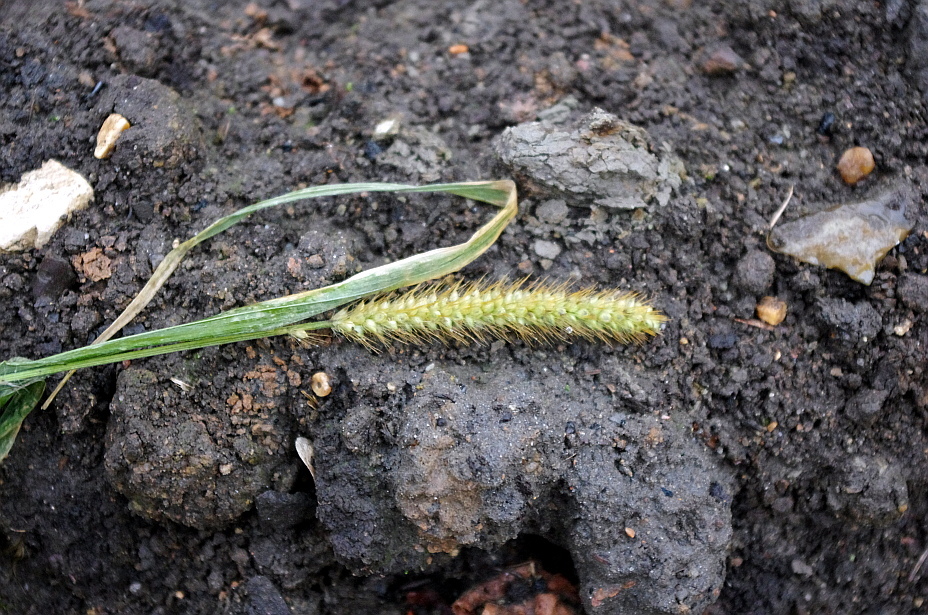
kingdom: Plantae
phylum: Tracheophyta
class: Liliopsida
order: Poales
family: Poaceae
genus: Setaria
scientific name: Setaria pumila
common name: Yellow bristle-grass
